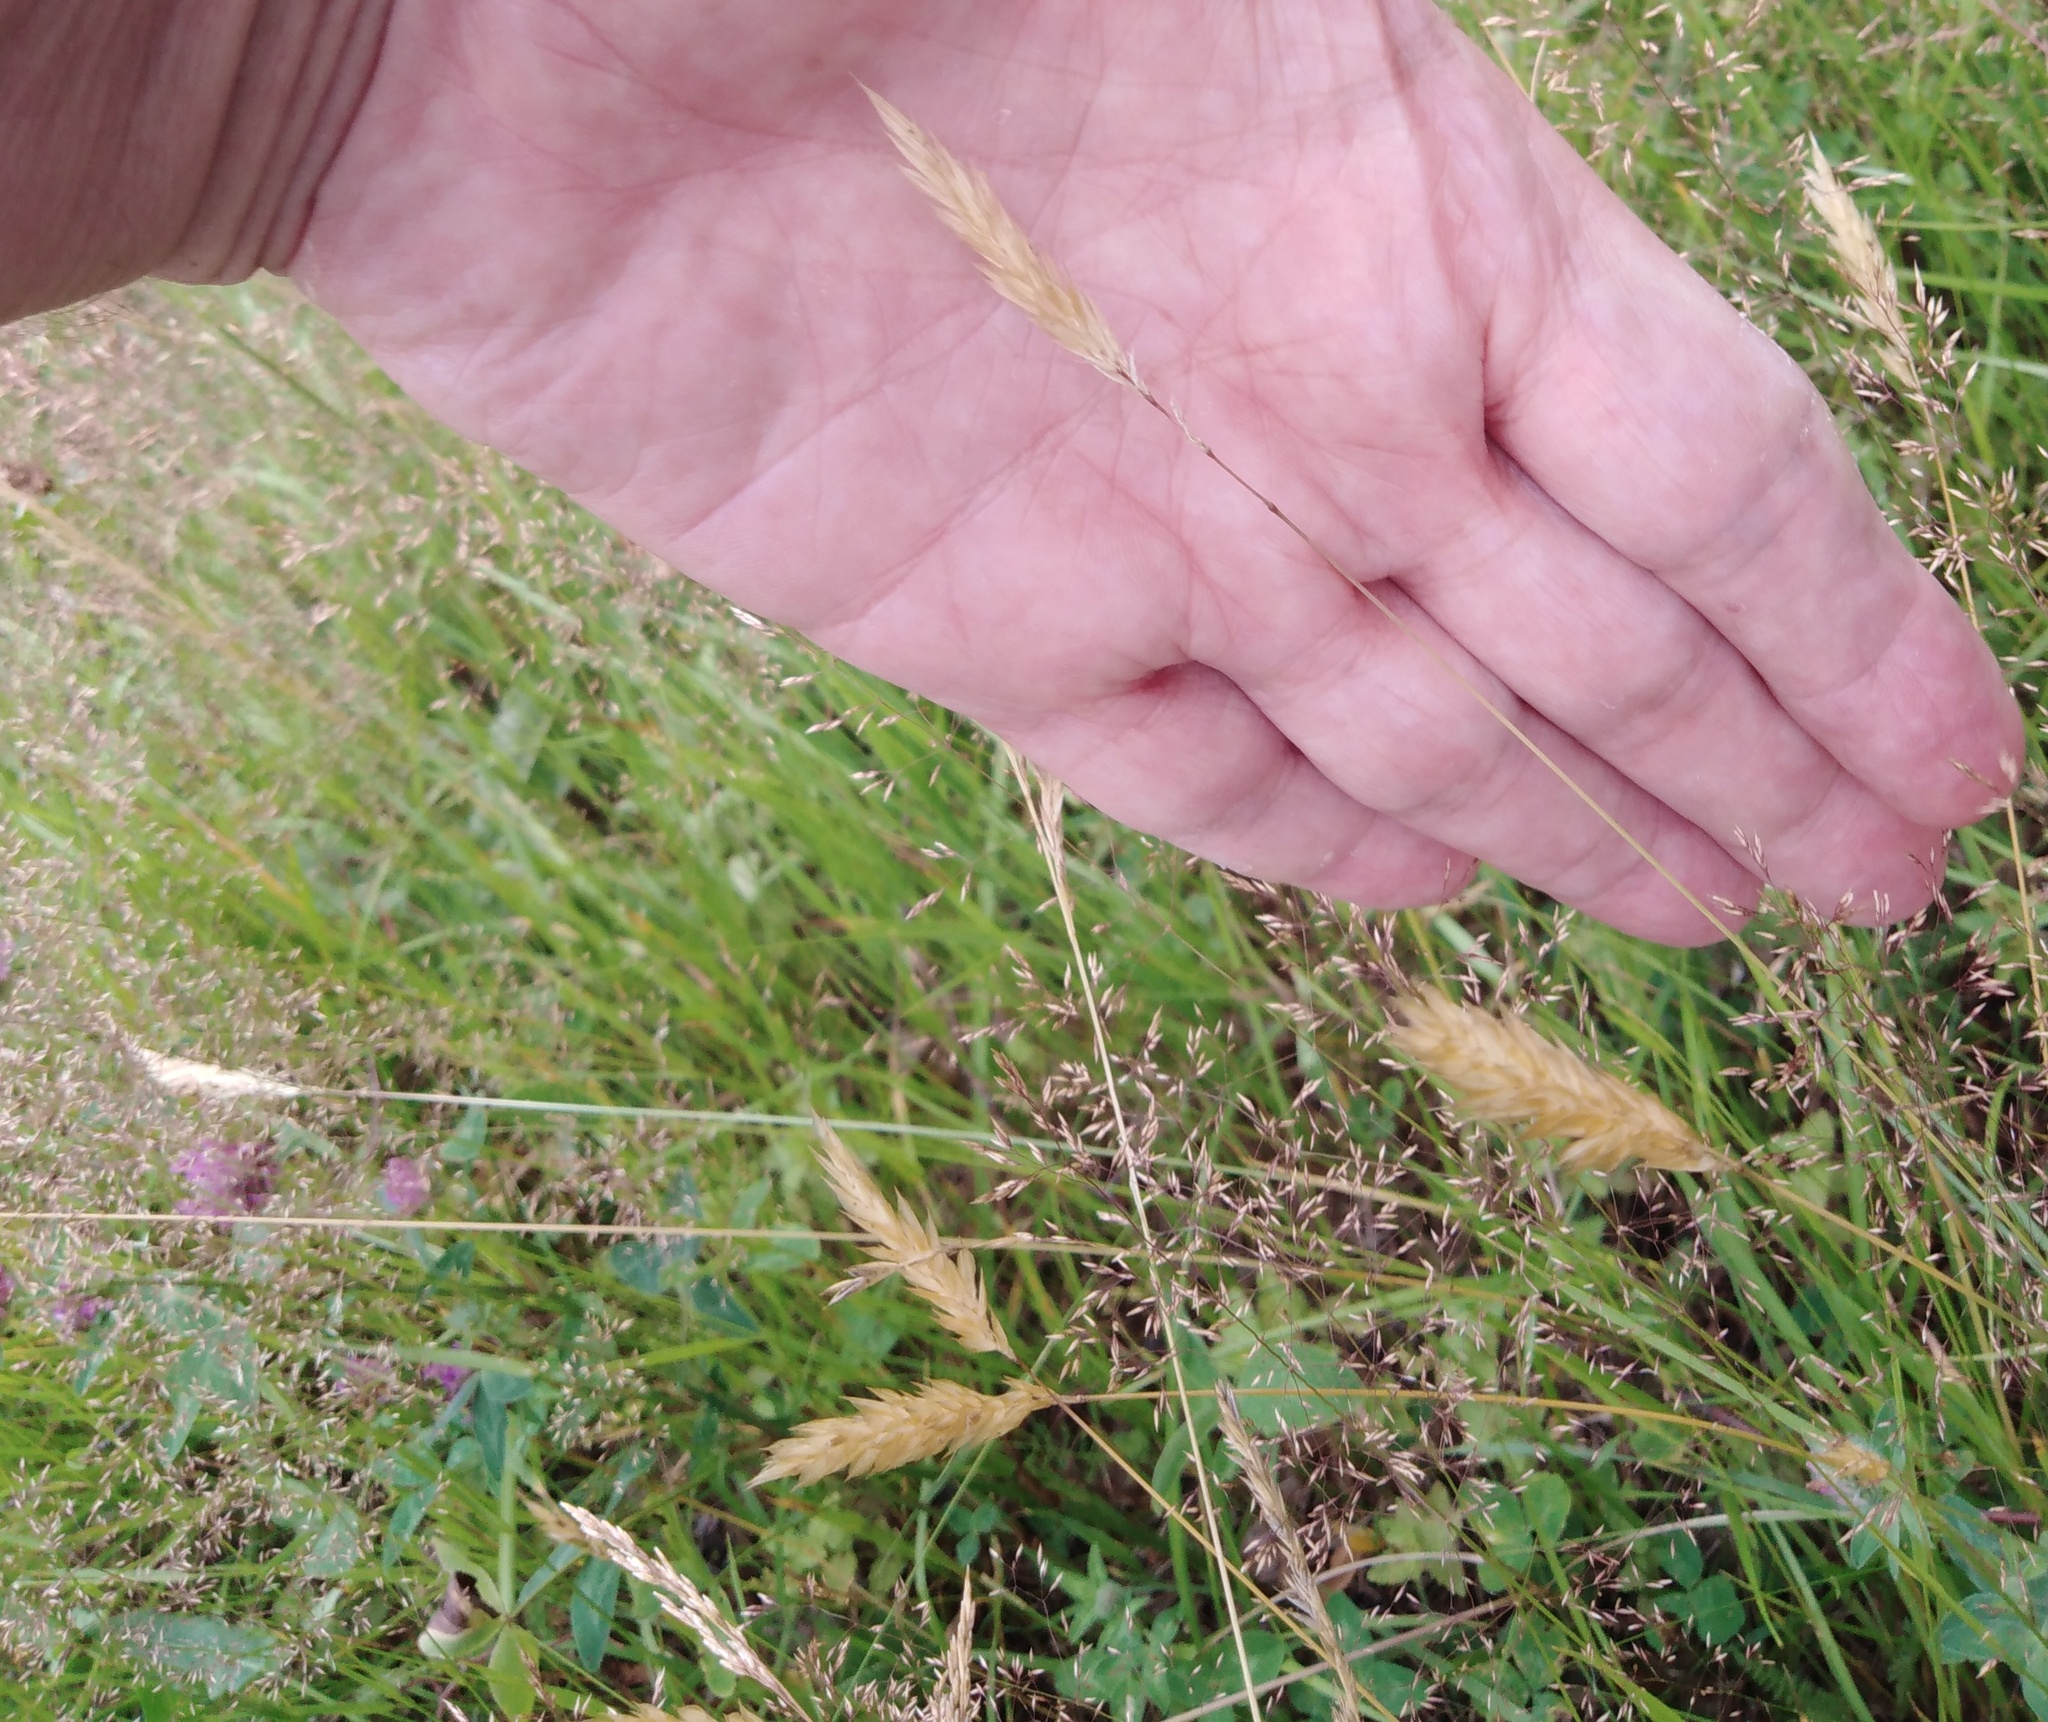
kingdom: Plantae
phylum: Tracheophyta
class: Liliopsida
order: Poales
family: Poaceae
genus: Anthoxanthum
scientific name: Anthoxanthum odoratum
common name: Sweet vernalgrass
